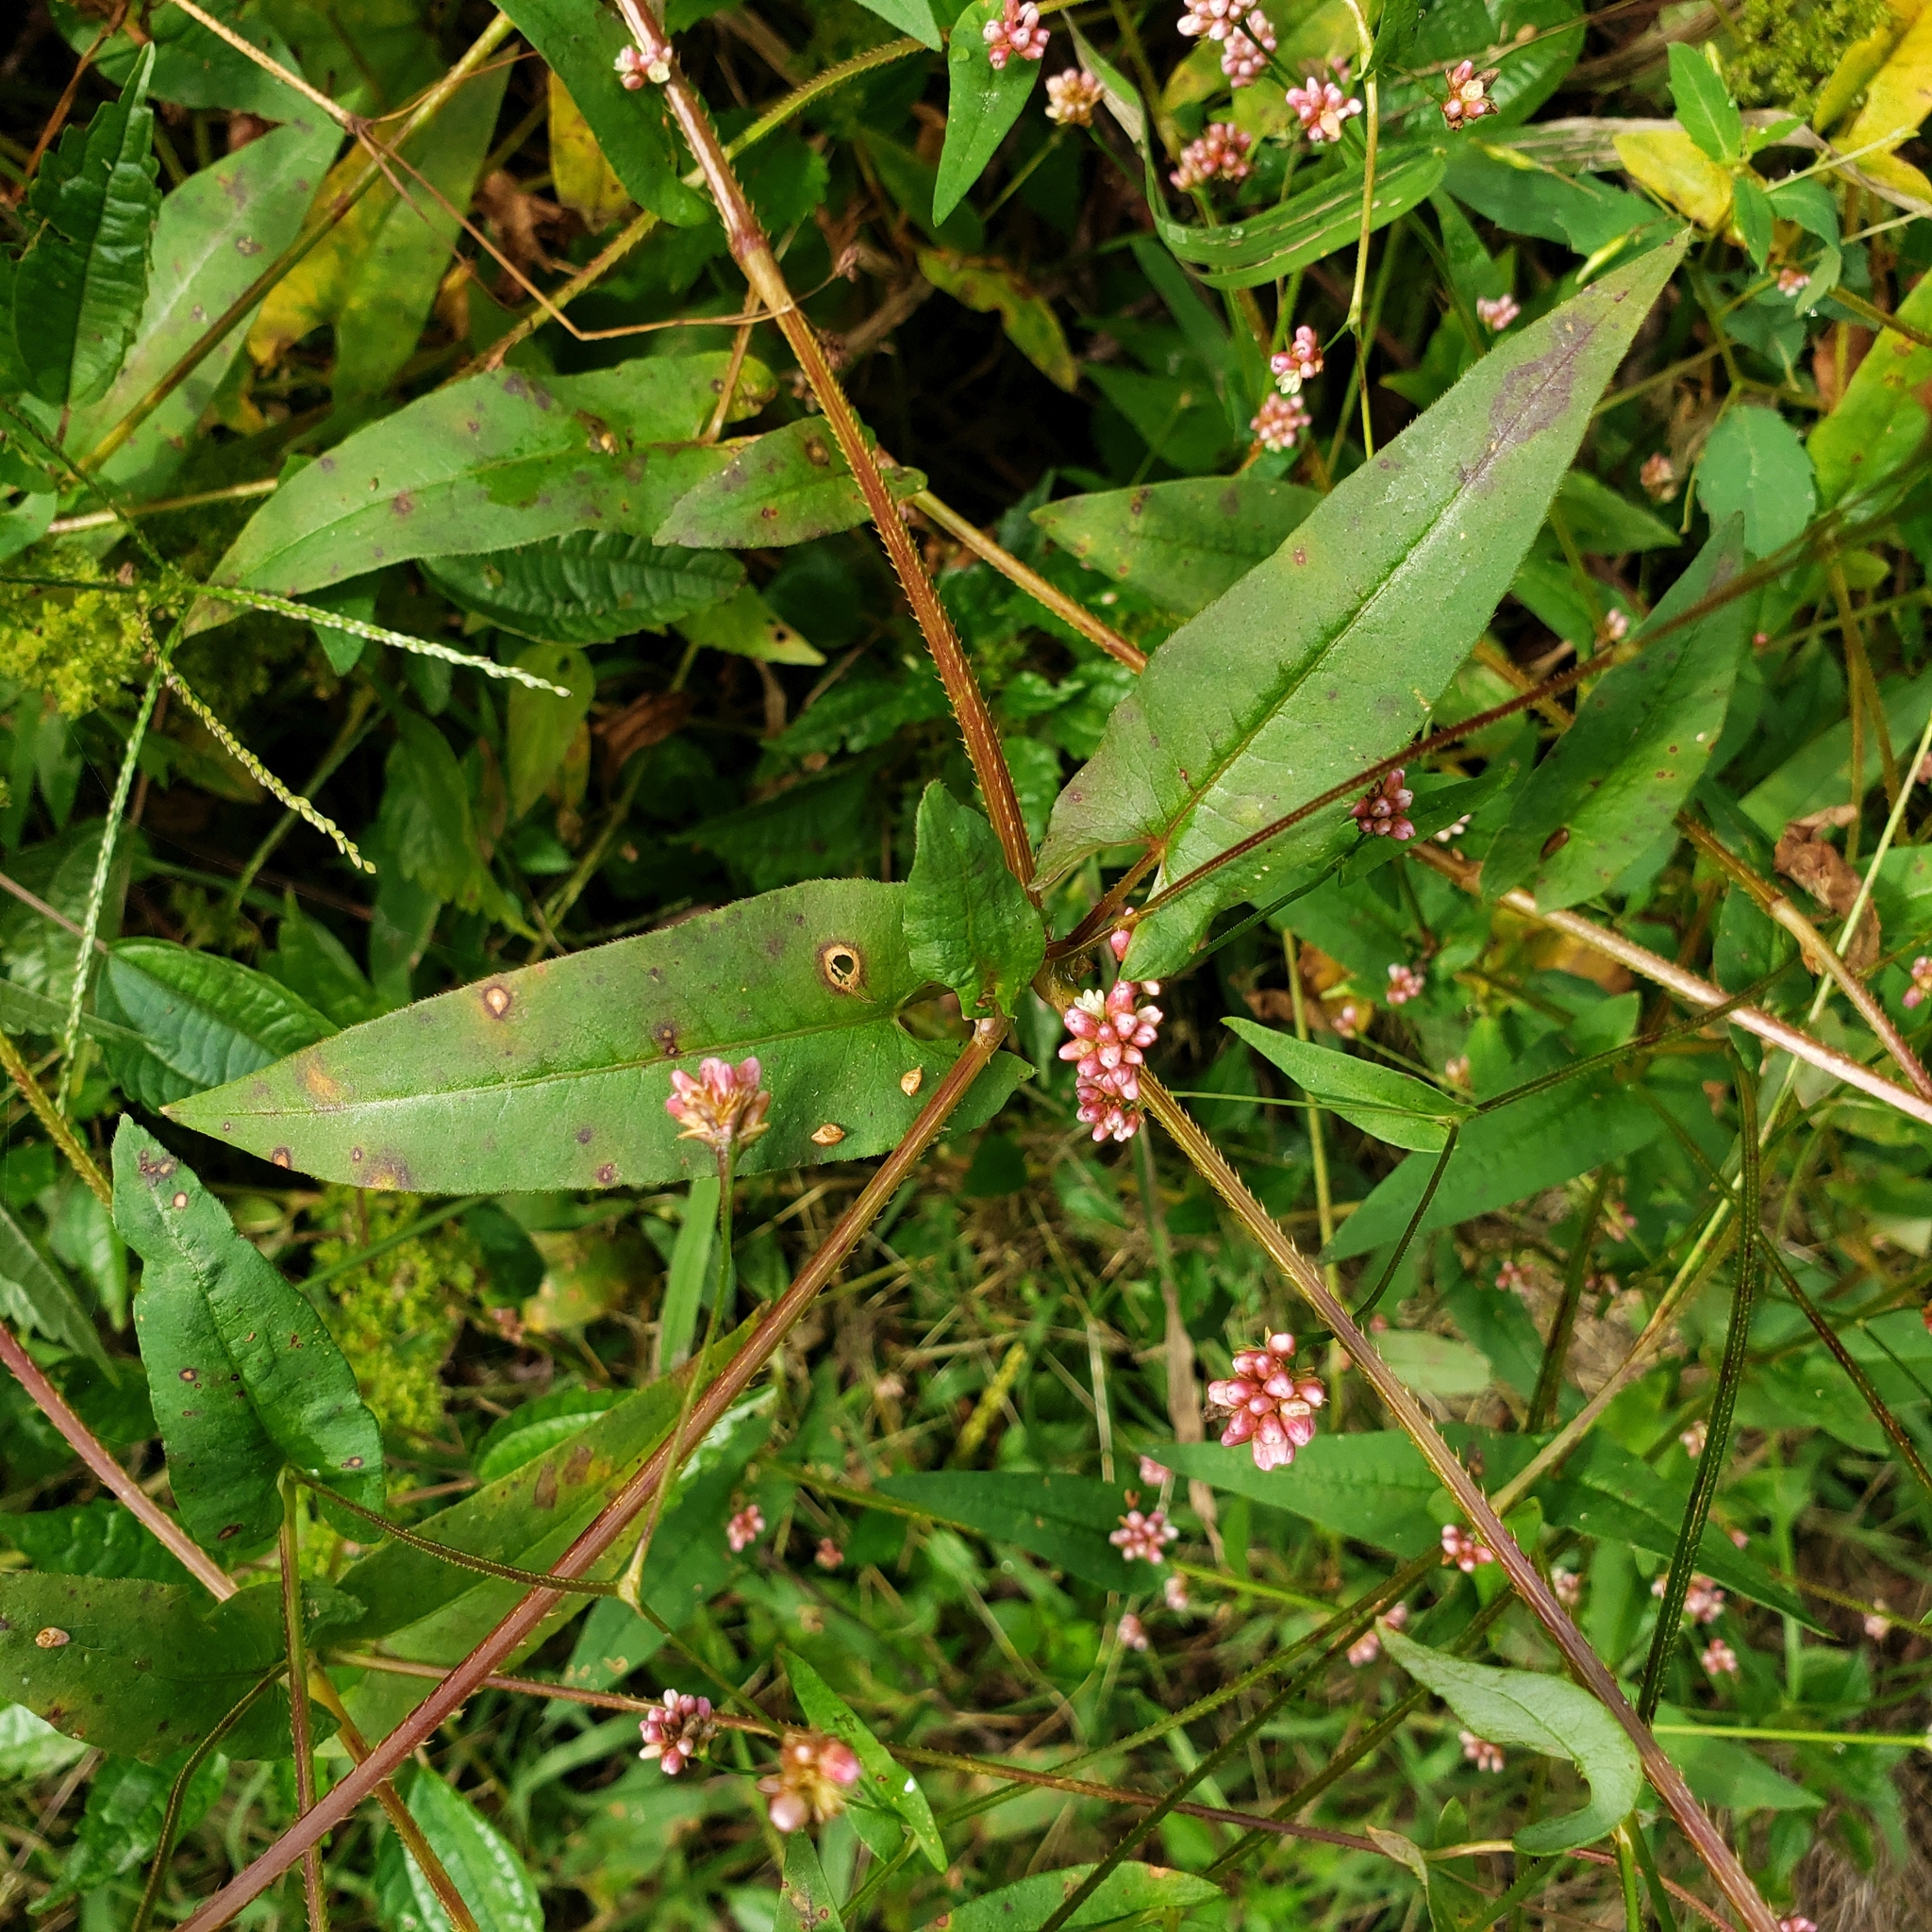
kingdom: Plantae
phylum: Tracheophyta
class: Magnoliopsida
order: Caryophyllales
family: Polygonaceae
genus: Persicaria
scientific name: Persicaria sagittata
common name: American tearthumb
